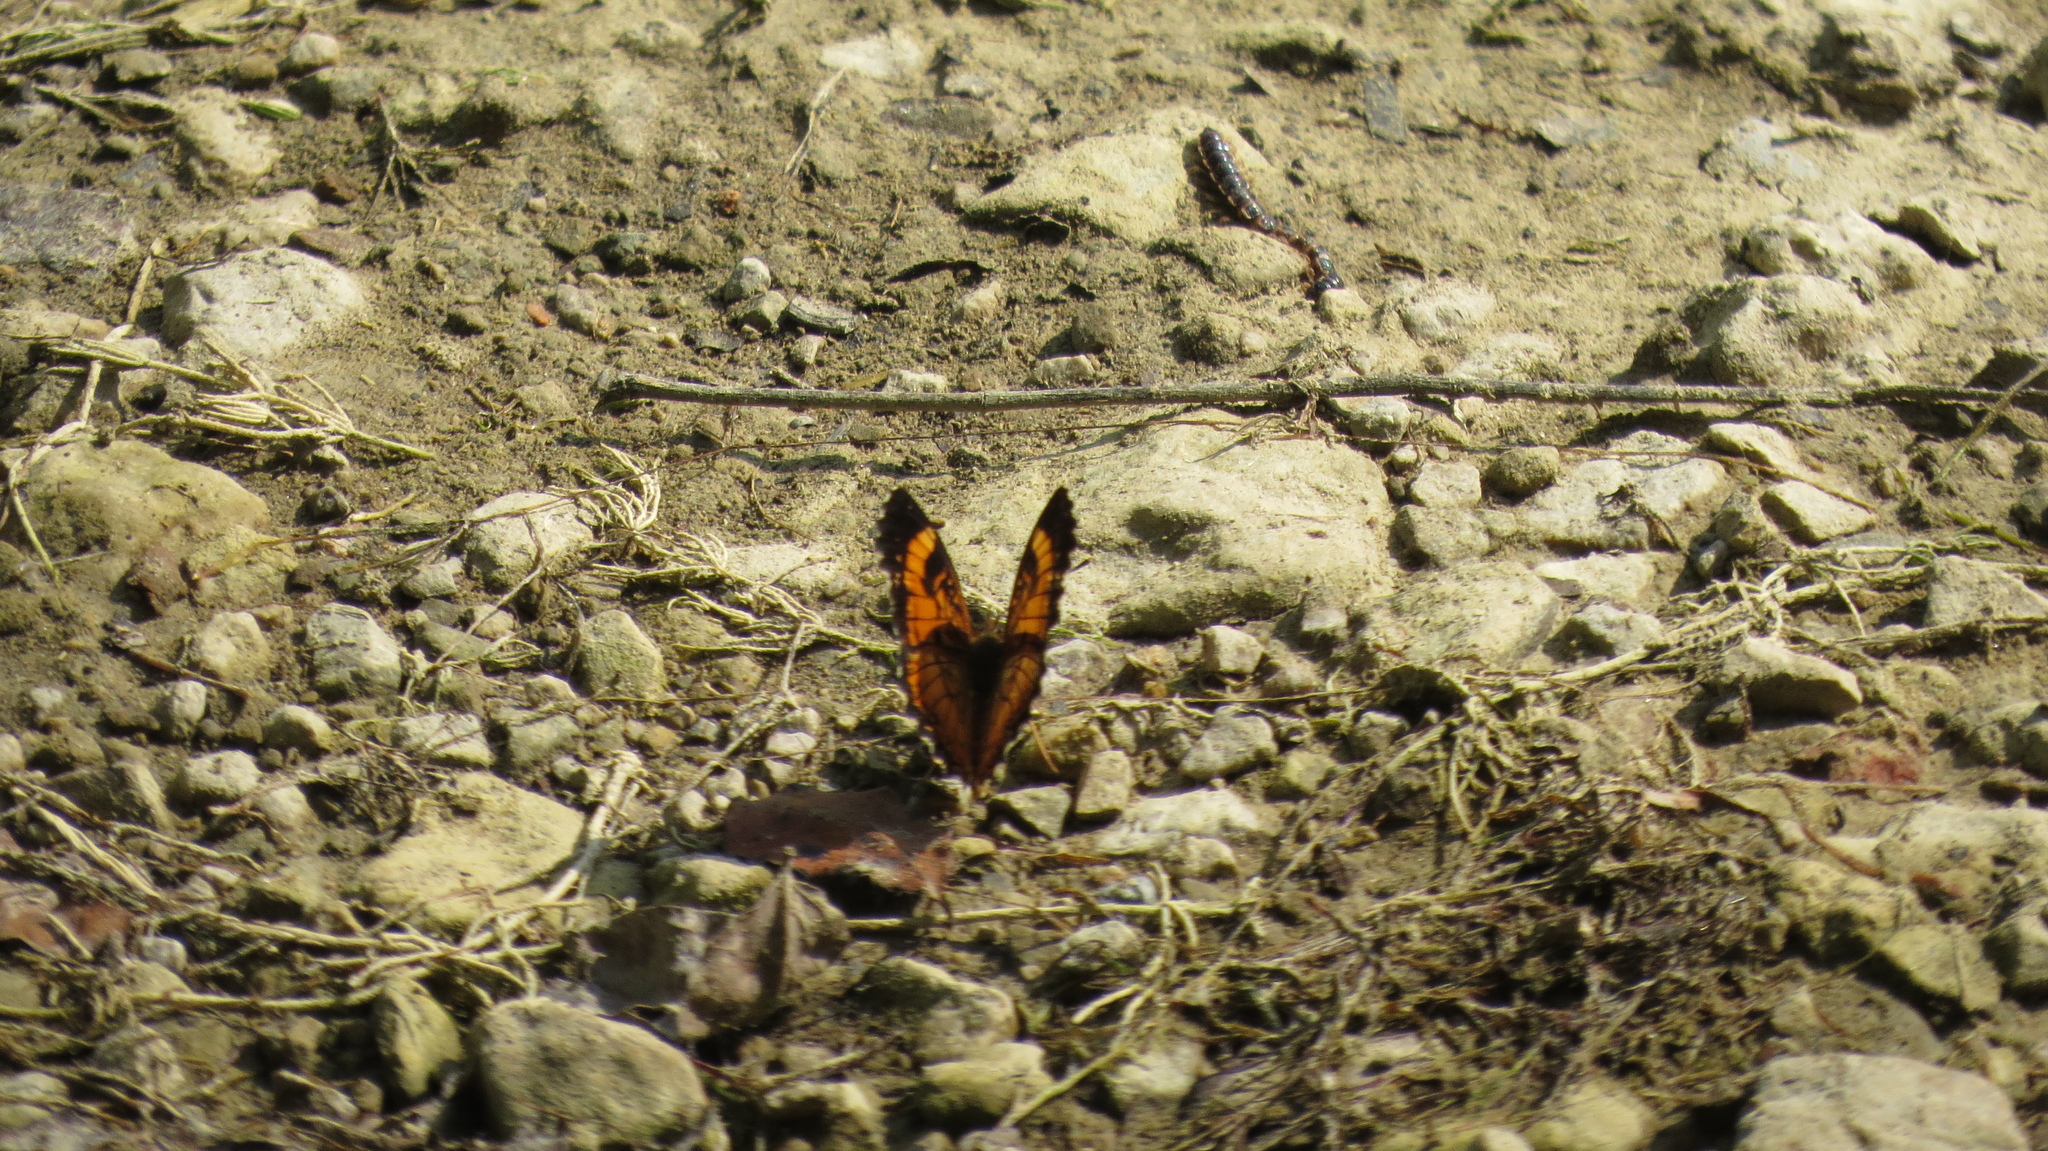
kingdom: Animalia
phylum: Arthropoda
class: Insecta
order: Lepidoptera
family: Nymphalidae
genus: Chlosyne
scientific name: Chlosyne nycteis
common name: Silvery checkerspot
